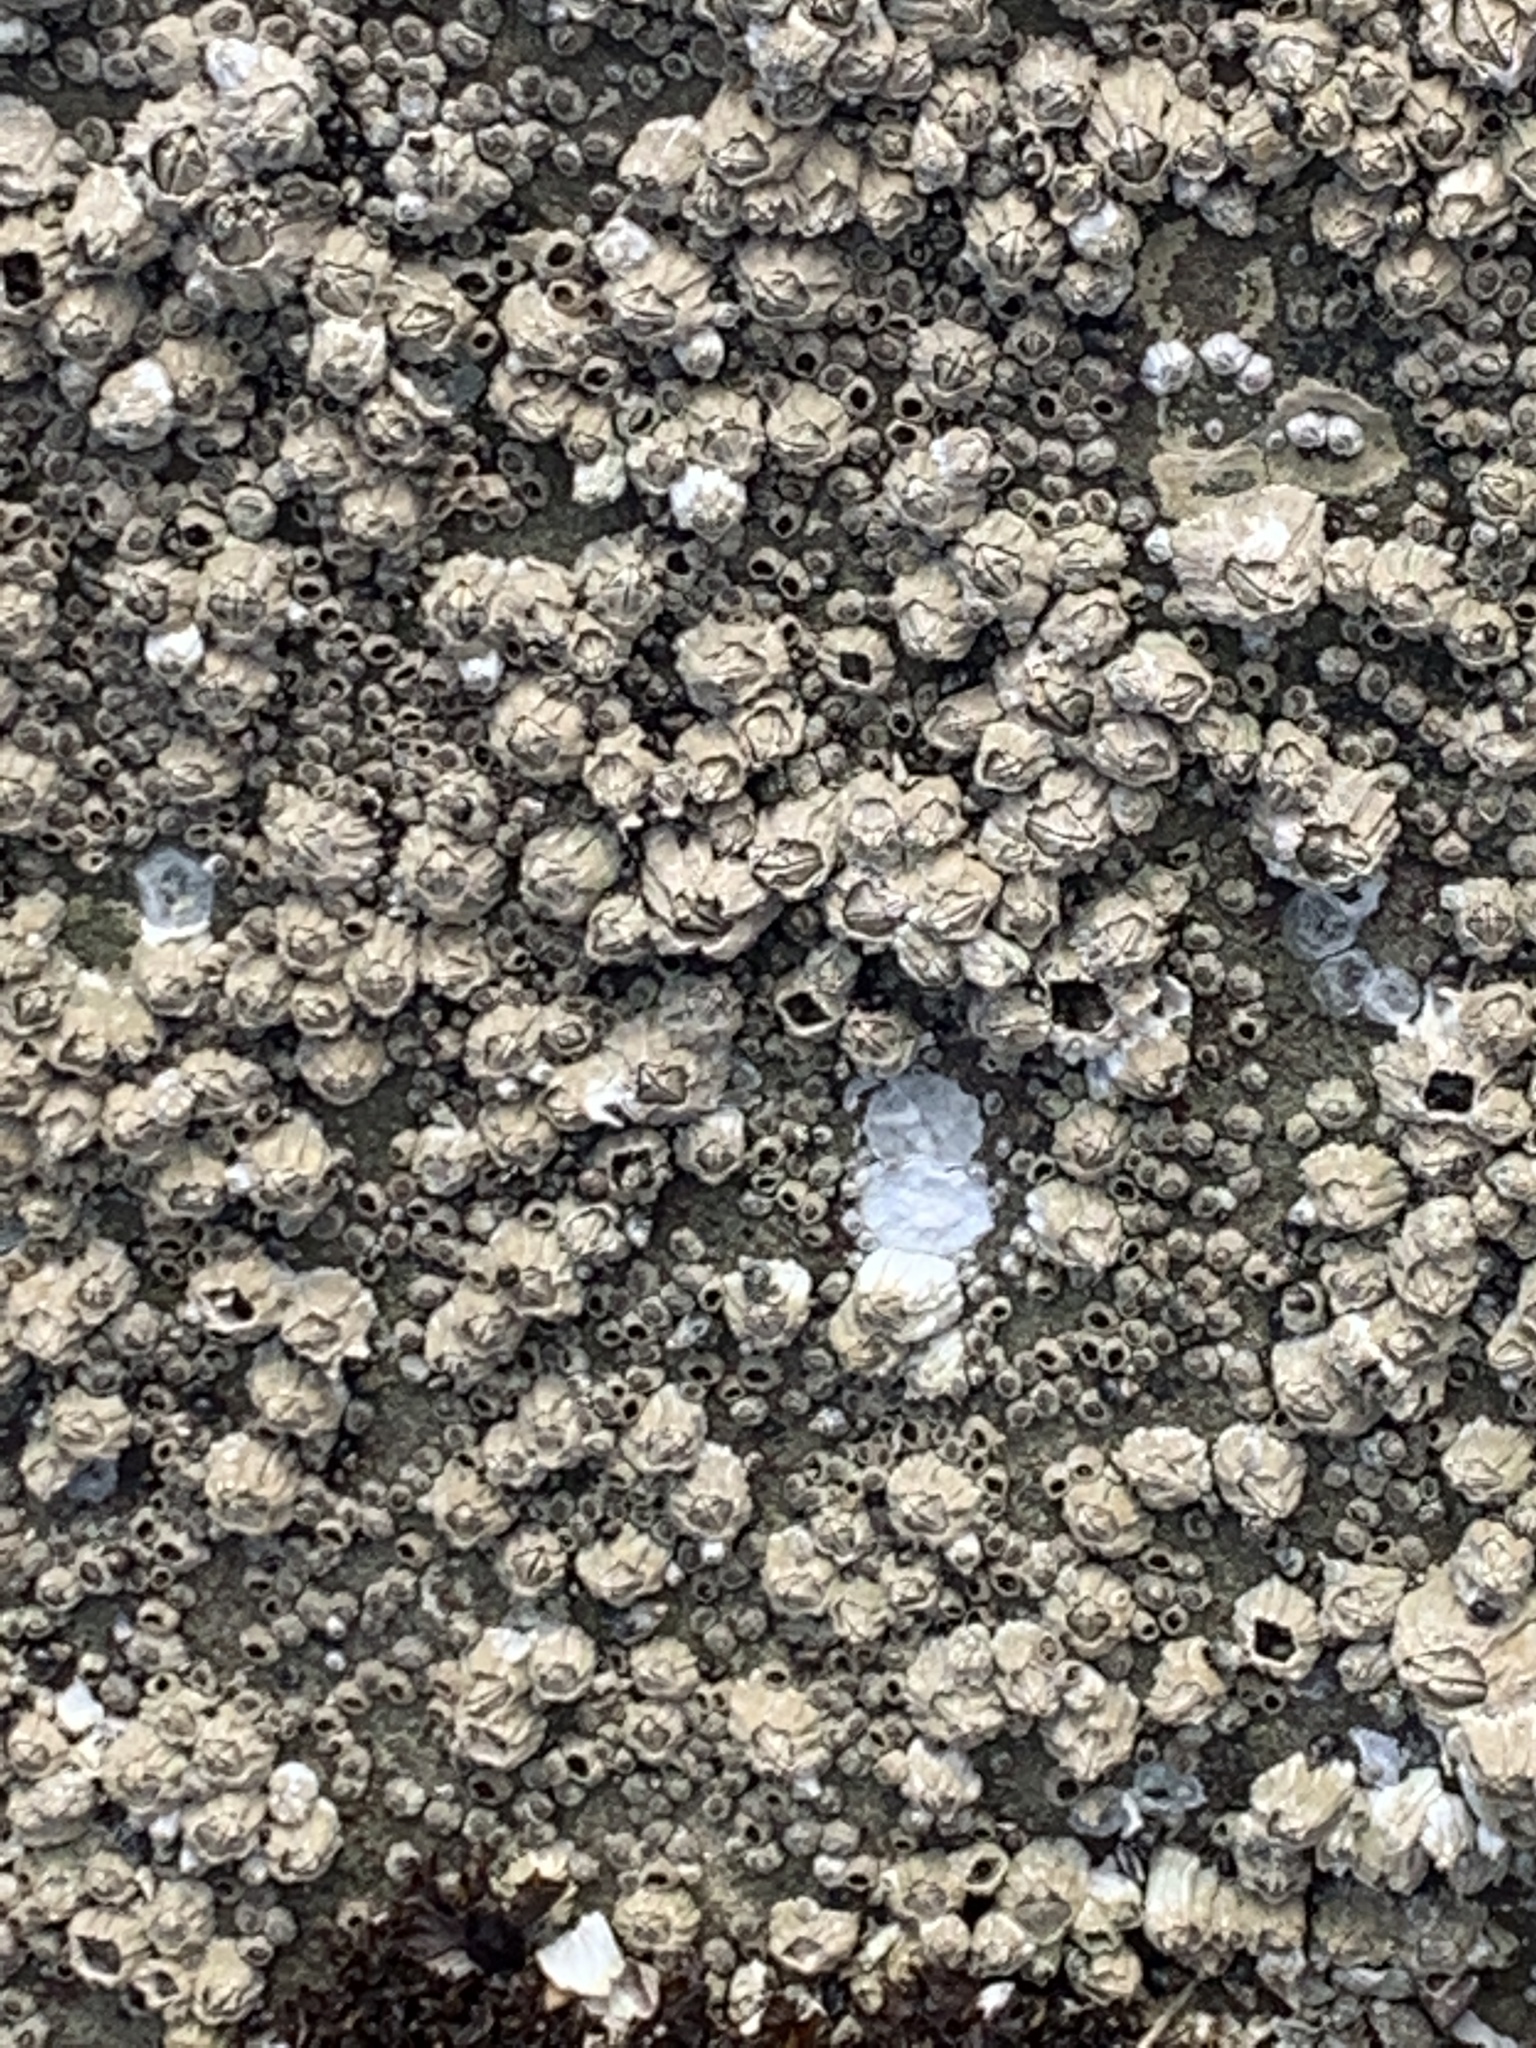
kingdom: Animalia
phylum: Arthropoda
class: Maxillopoda
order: Sessilia
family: Balanidae
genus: Balanus
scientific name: Balanus glandula
